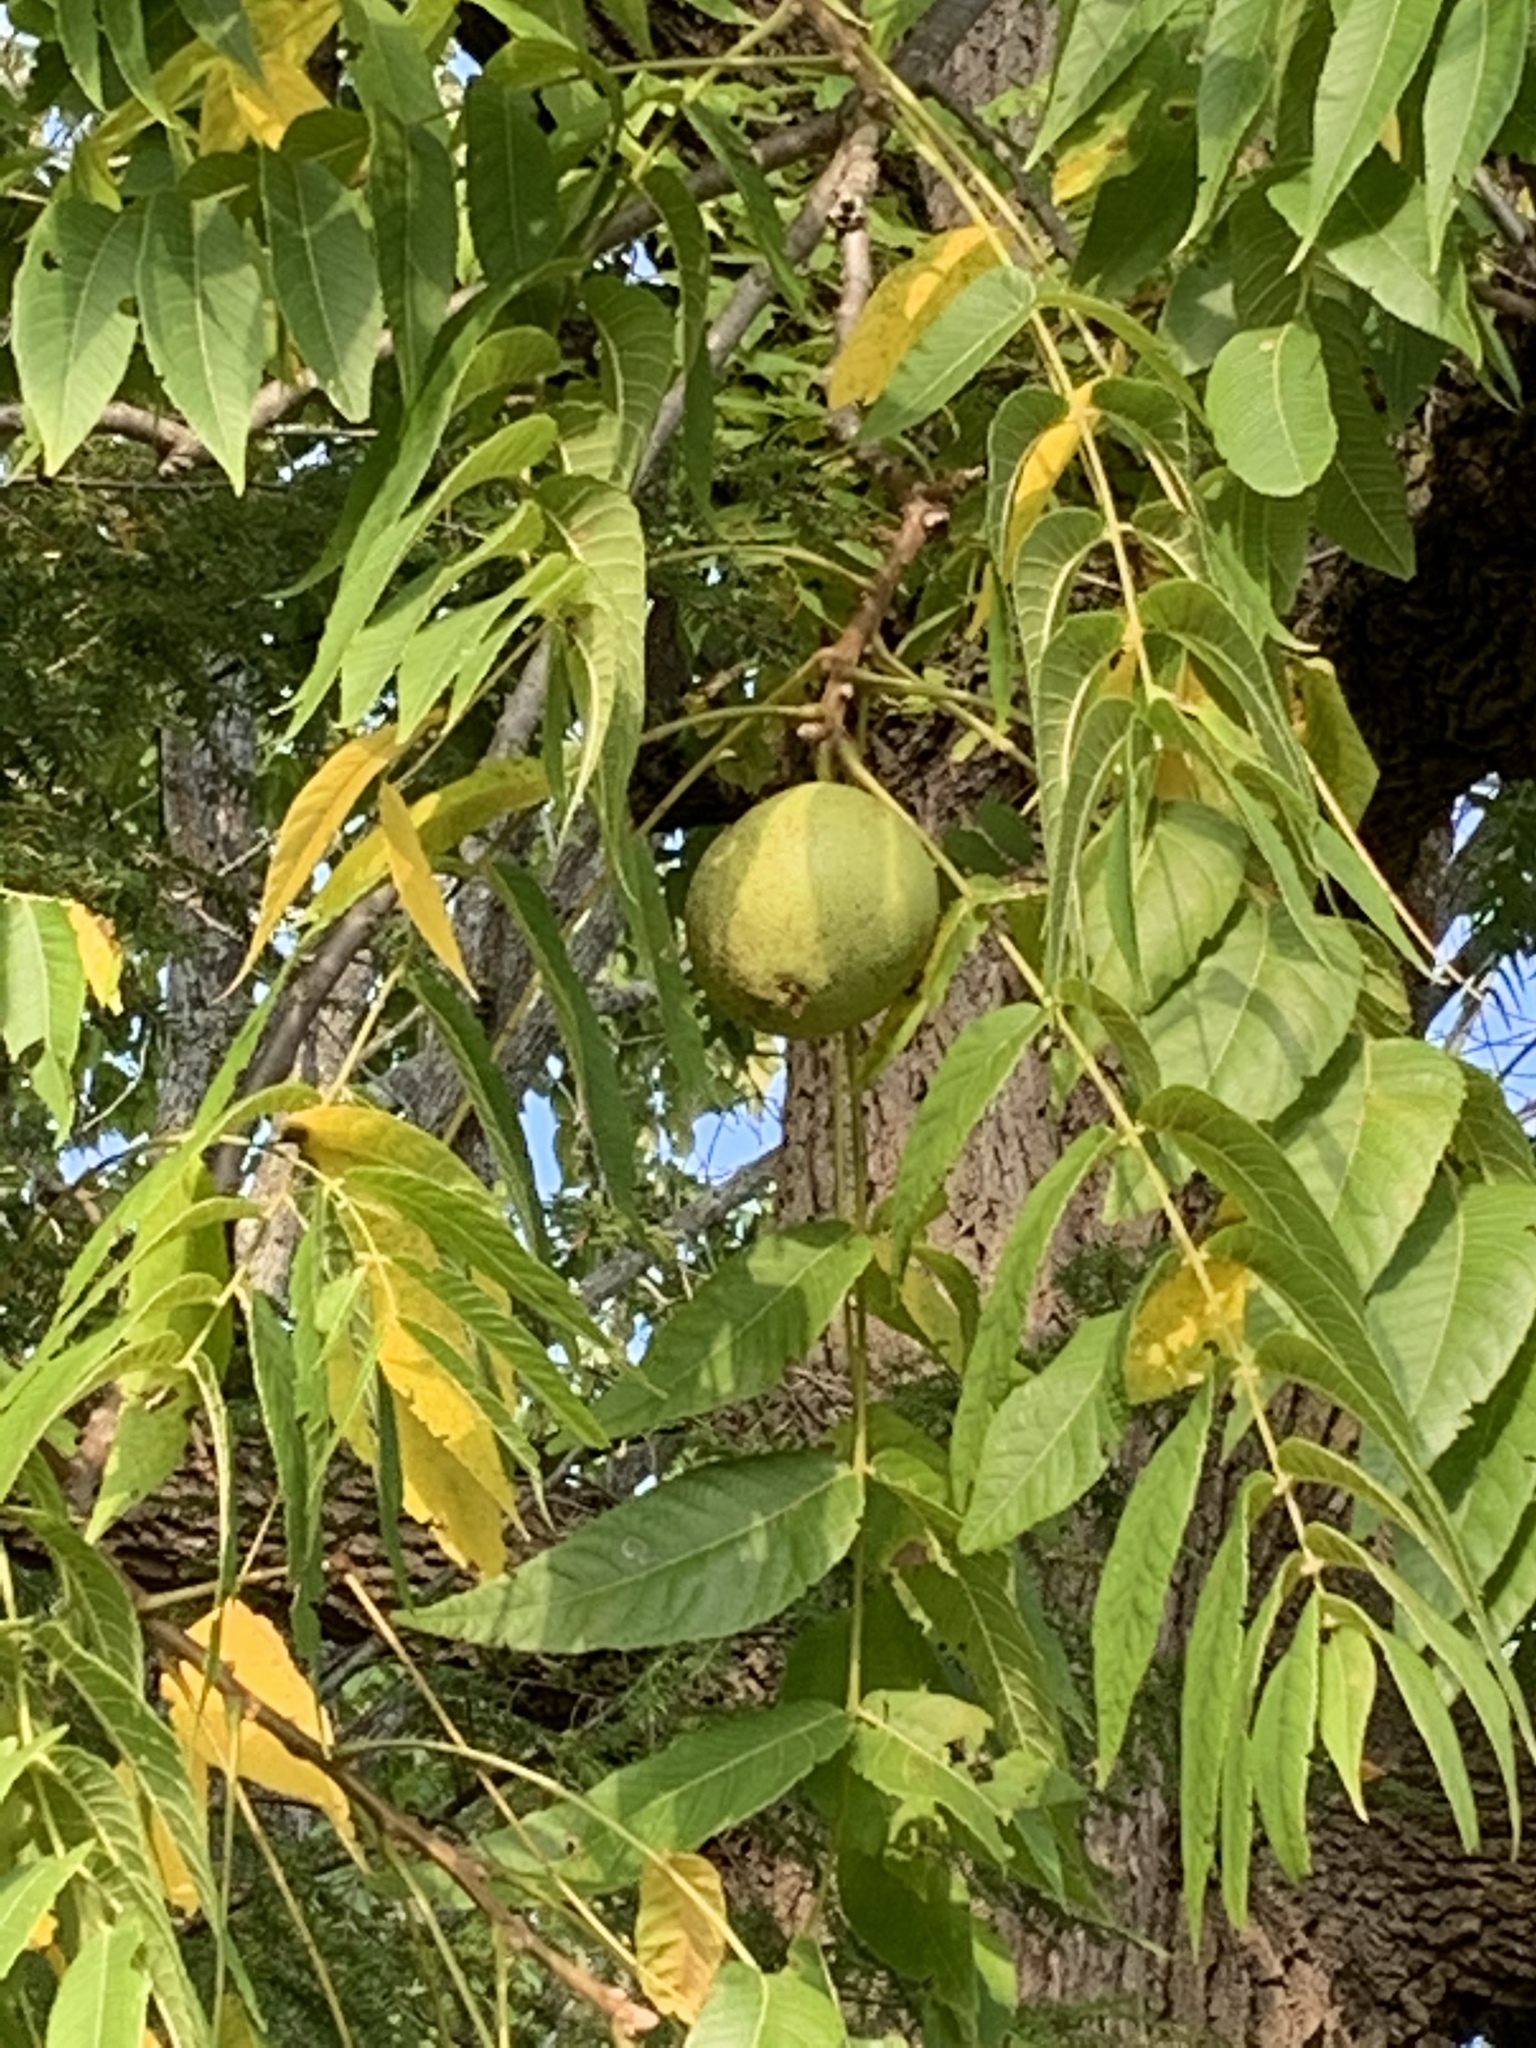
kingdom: Plantae
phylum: Tracheophyta
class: Magnoliopsida
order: Fagales
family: Juglandaceae
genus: Juglans
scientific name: Juglans nigra
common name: Black walnut
